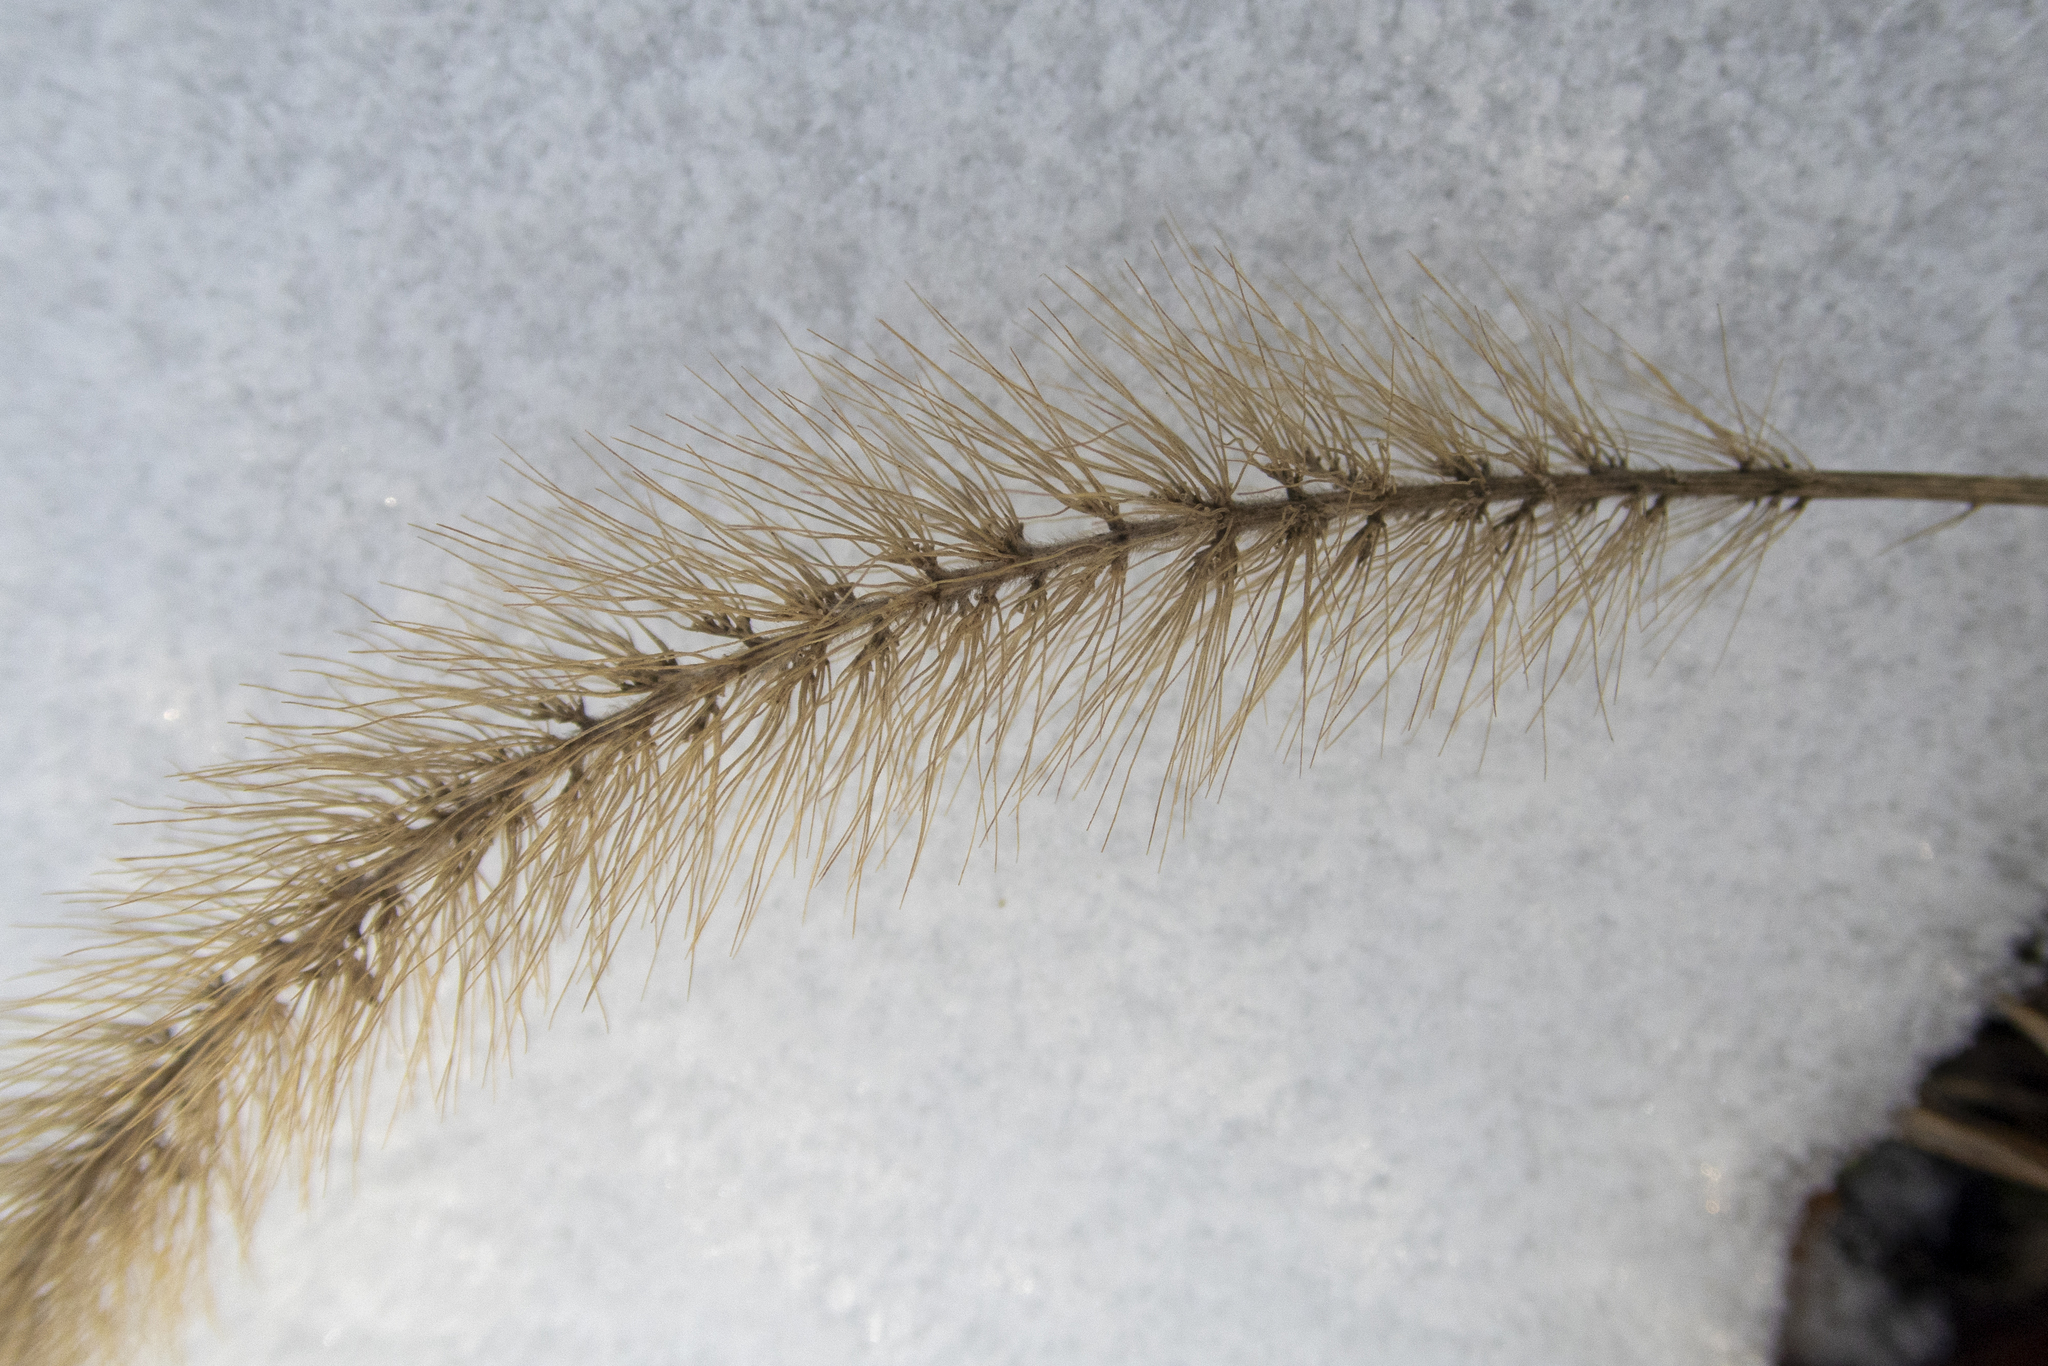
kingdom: Plantae
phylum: Tracheophyta
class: Liliopsida
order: Poales
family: Poaceae
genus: Setaria
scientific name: Setaria viridis
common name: Green bristlegrass
